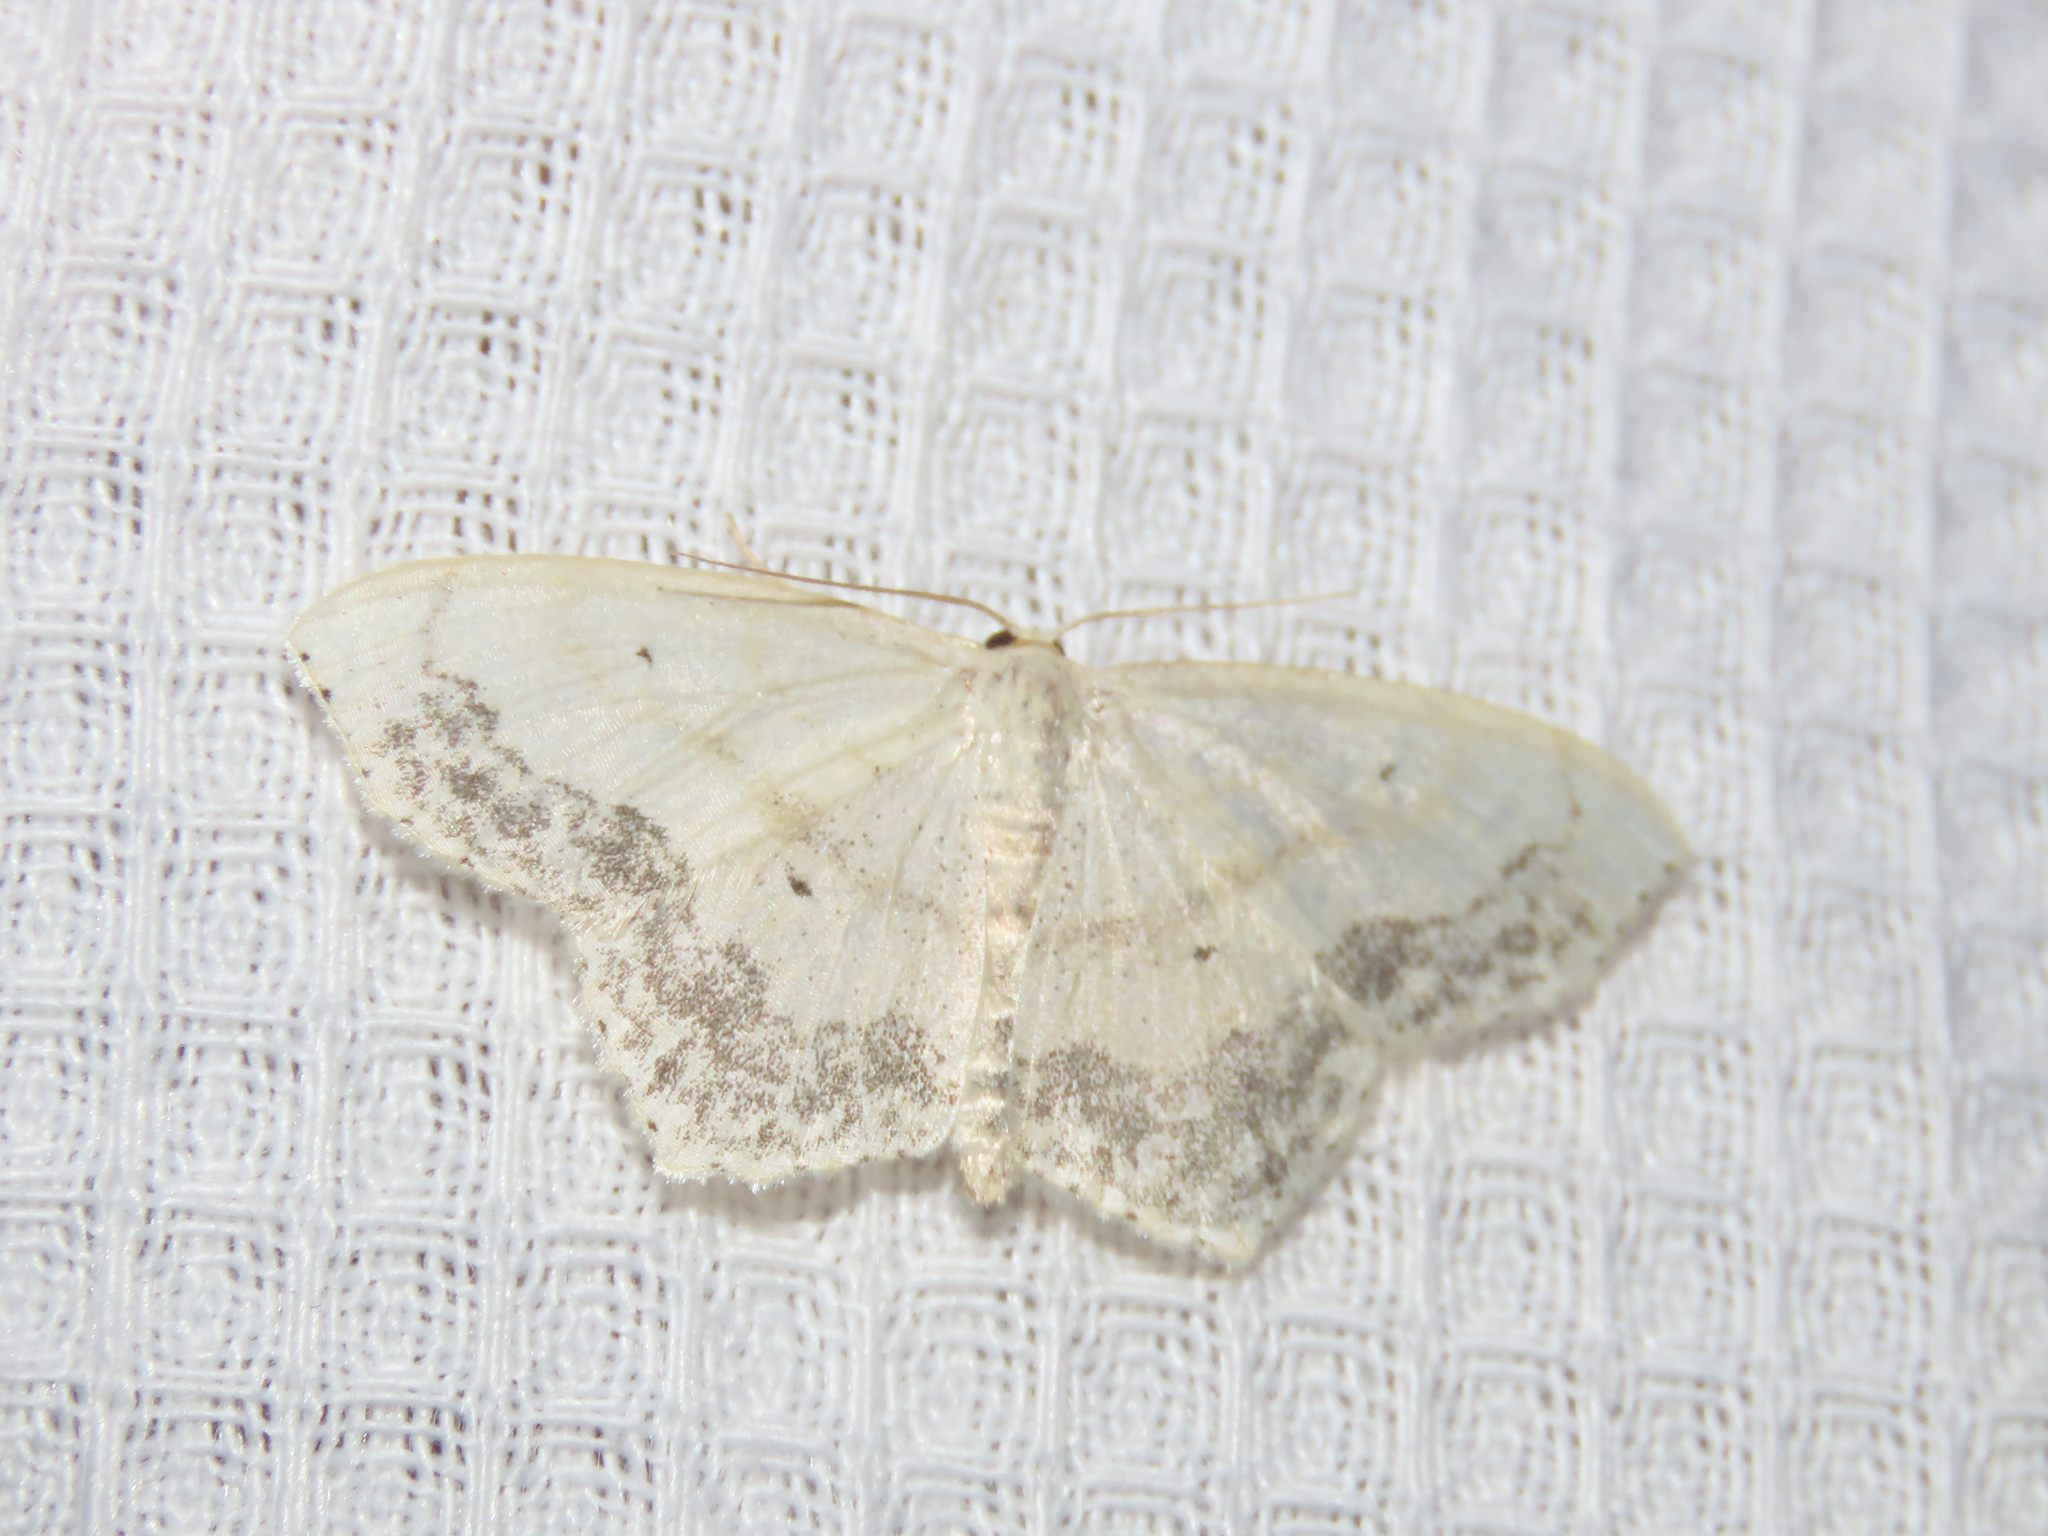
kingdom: Animalia
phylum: Arthropoda
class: Insecta
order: Lepidoptera
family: Geometridae
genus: Scopula
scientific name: Scopula limboundata
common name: Large lace border
